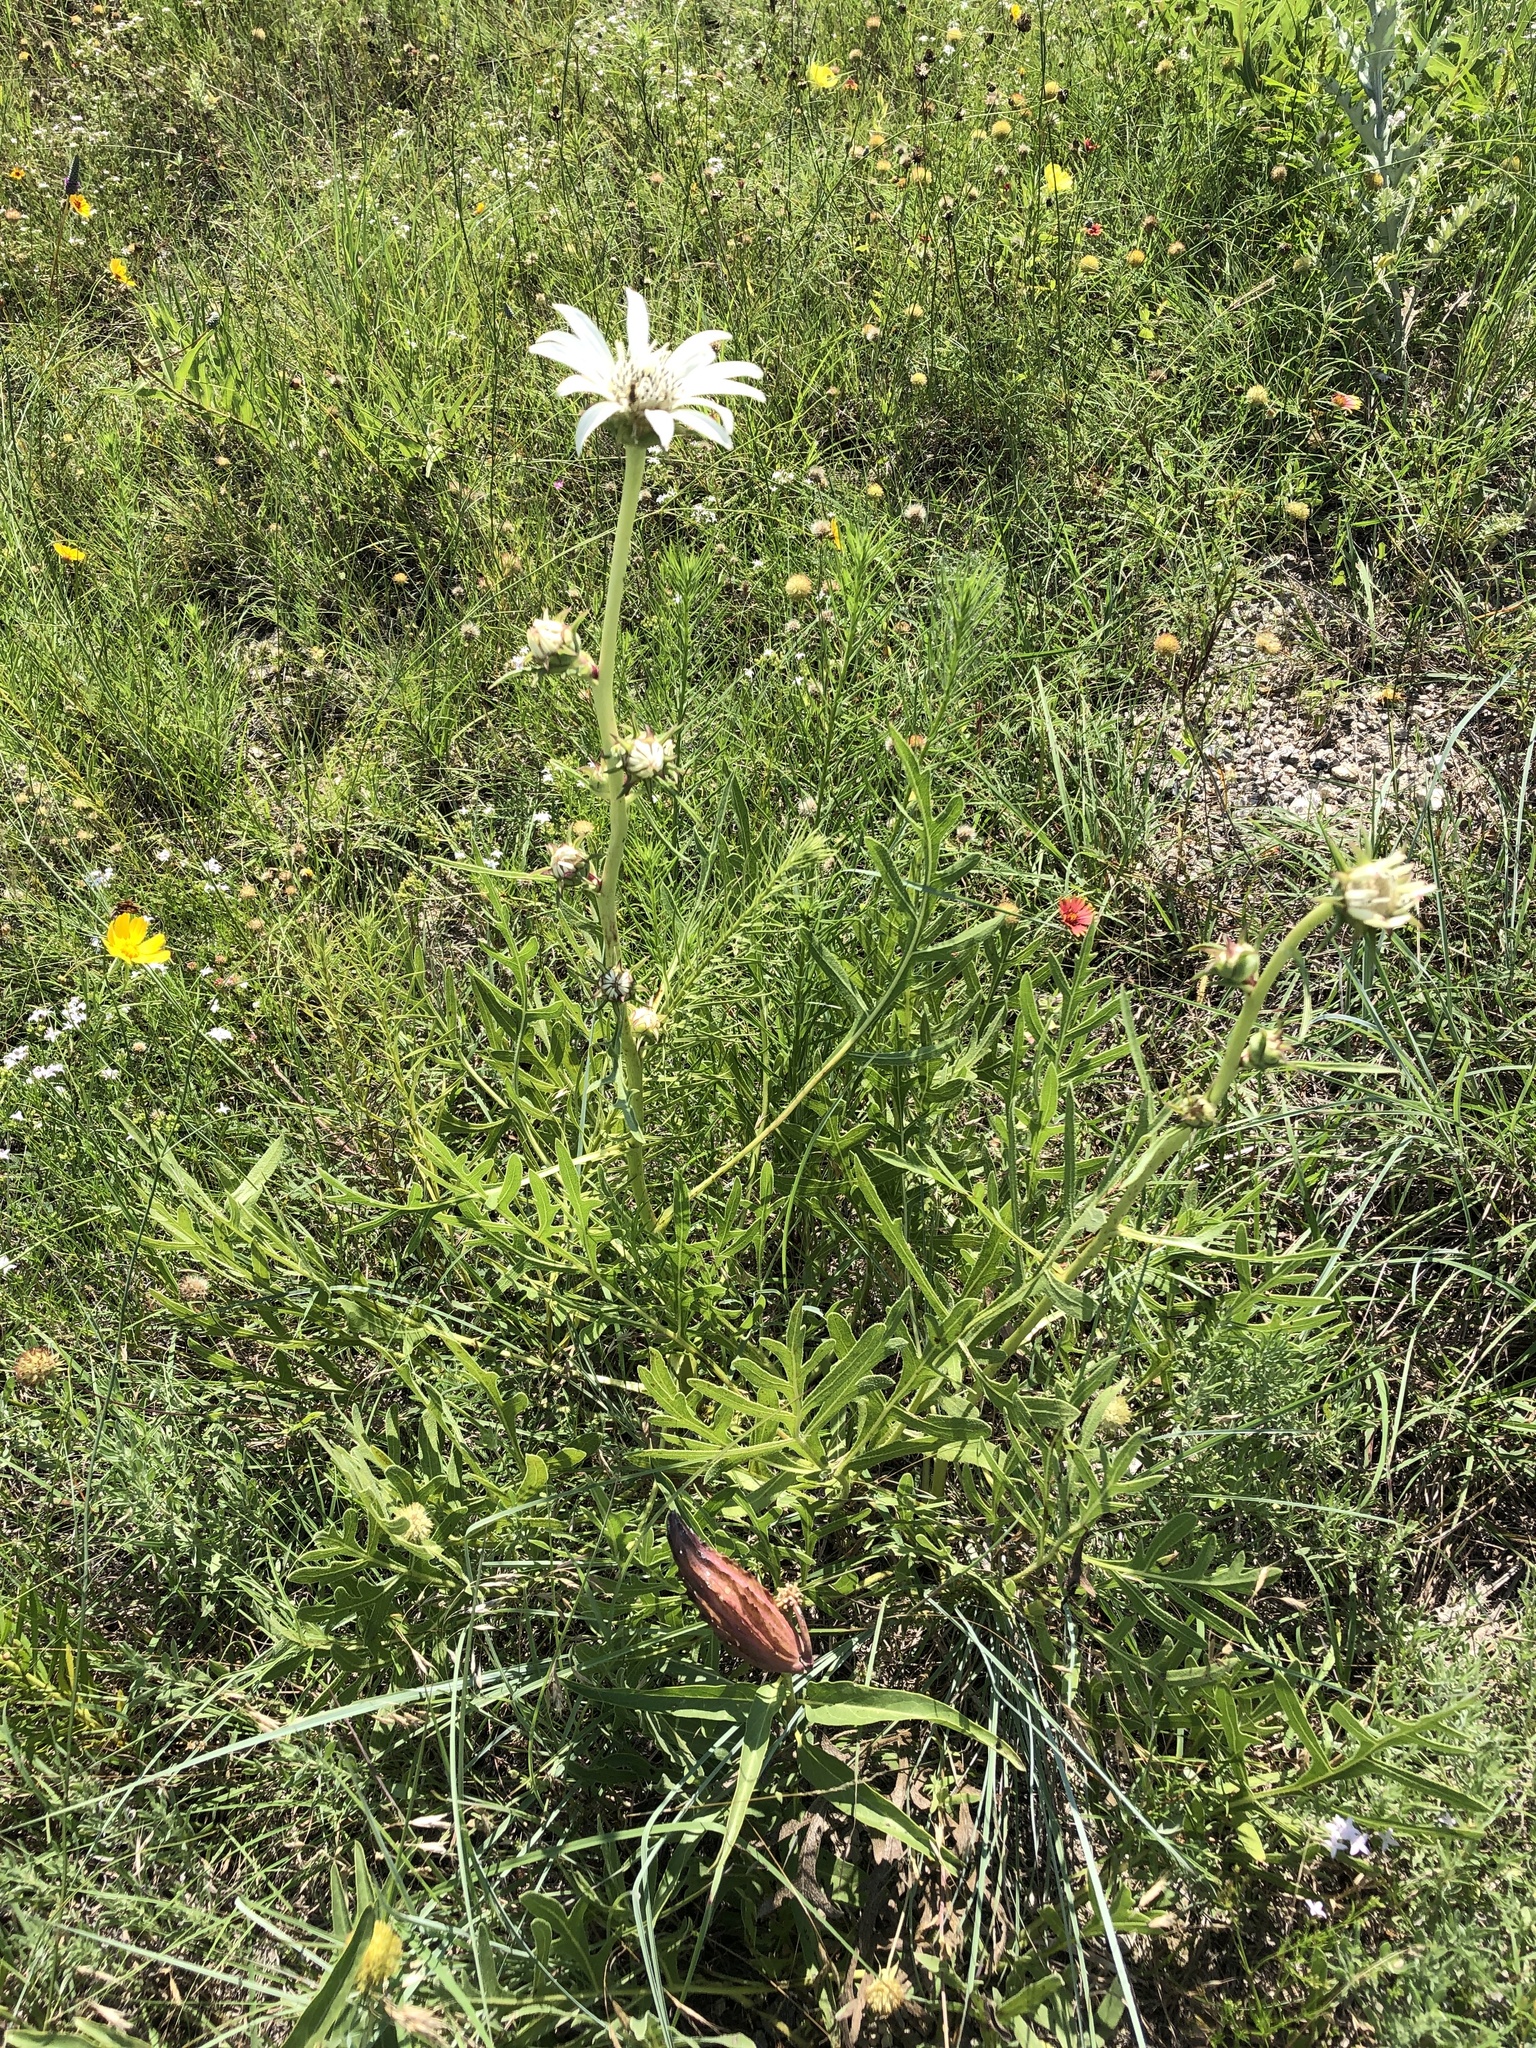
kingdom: Plantae
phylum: Tracheophyta
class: Magnoliopsida
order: Asterales
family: Asteraceae
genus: Silphium
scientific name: Silphium albiflorum
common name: White rosinweed
